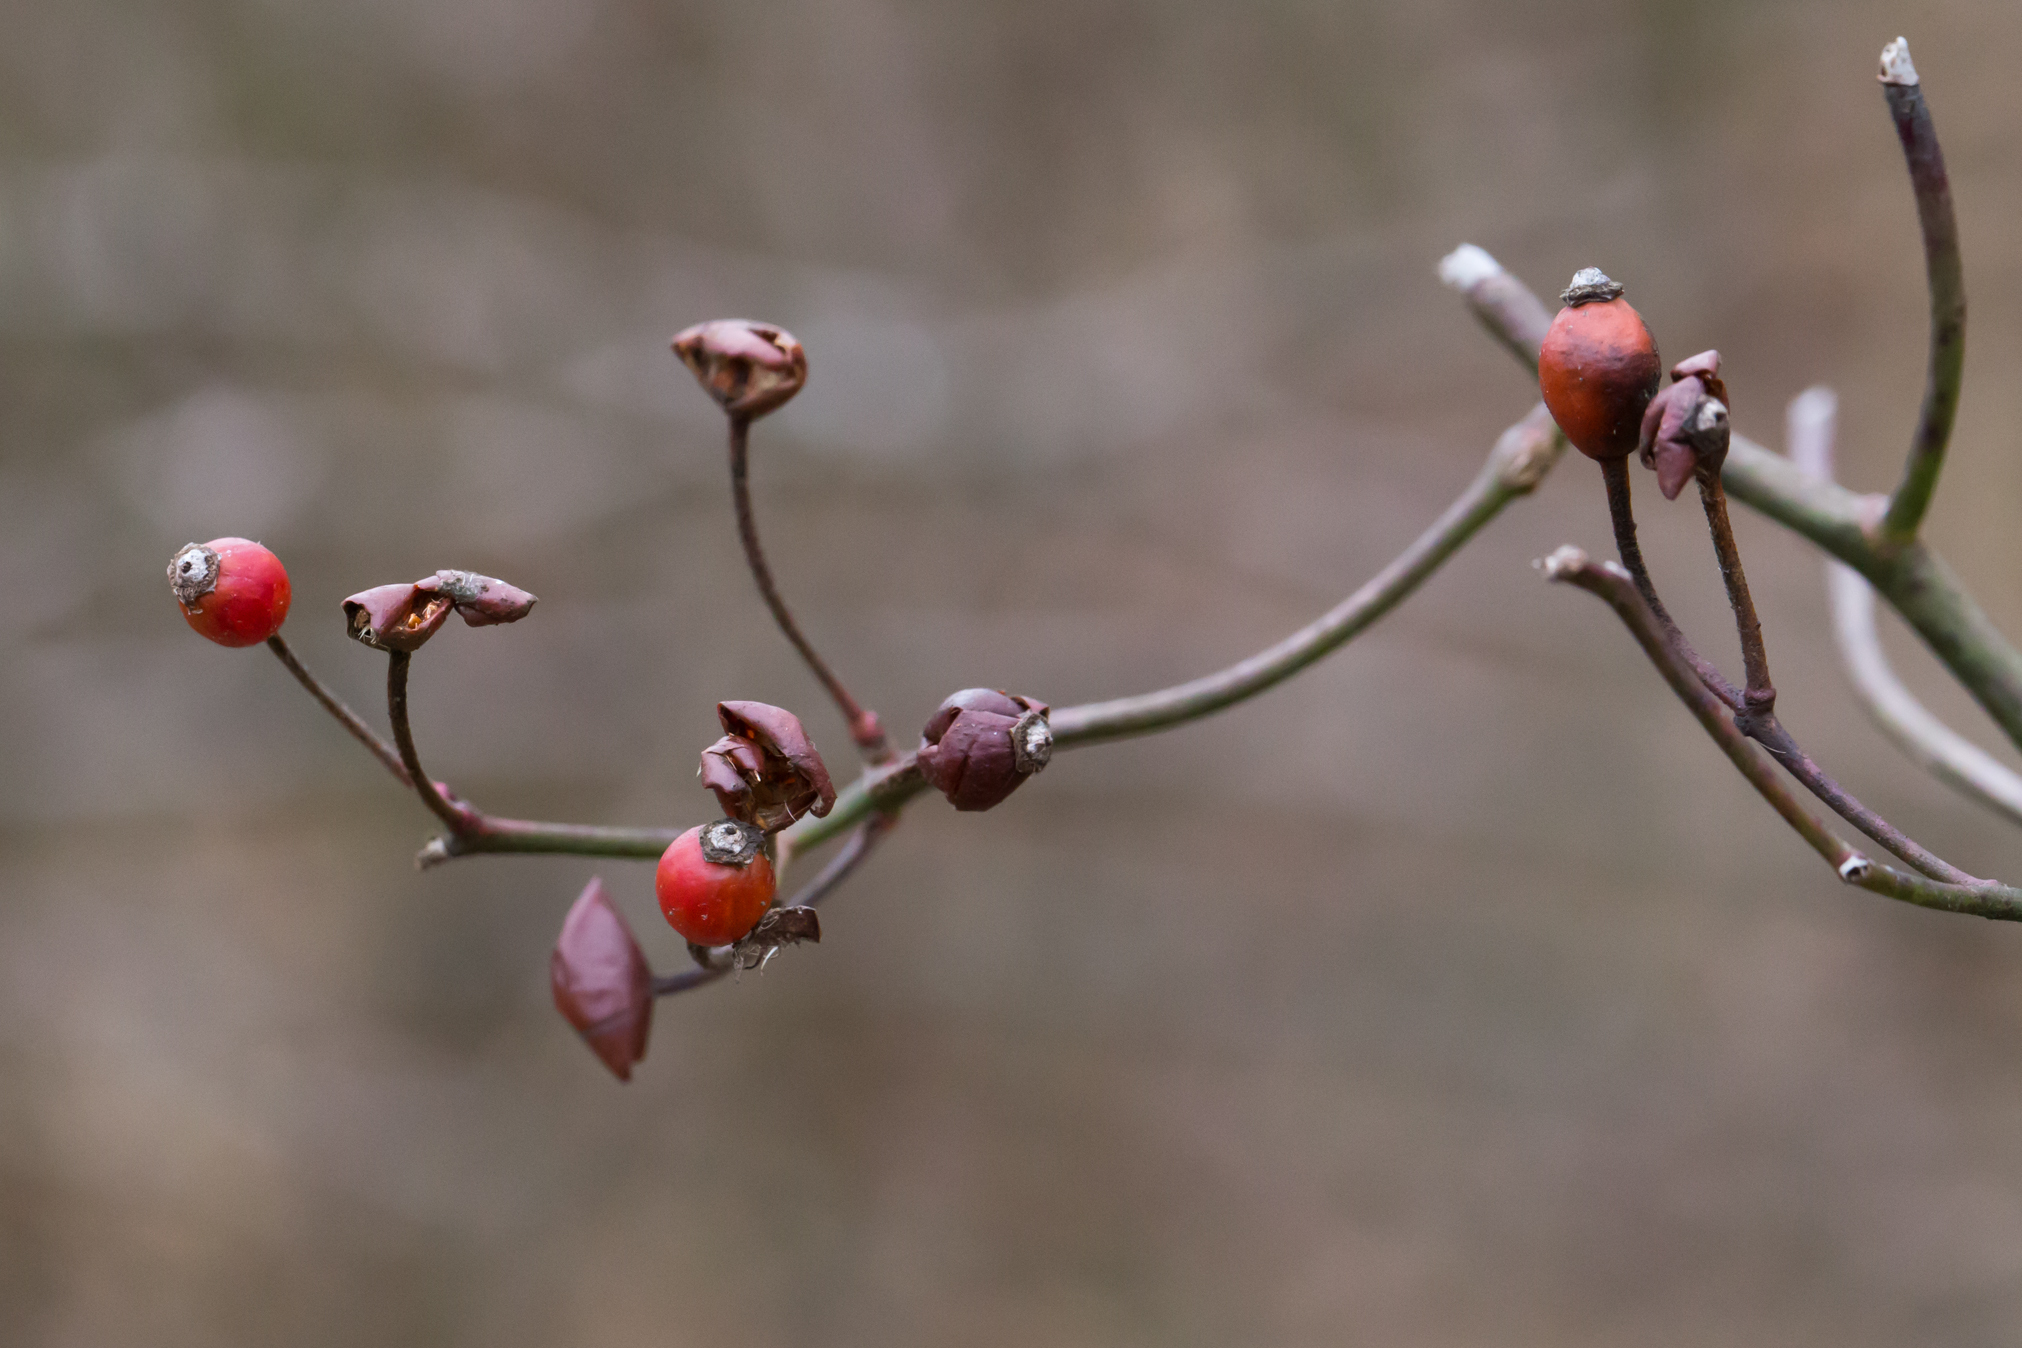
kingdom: Plantae
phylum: Tracheophyta
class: Magnoliopsida
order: Rosales
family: Rosaceae
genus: Rosa
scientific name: Rosa multiflora
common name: Multiflora rose
